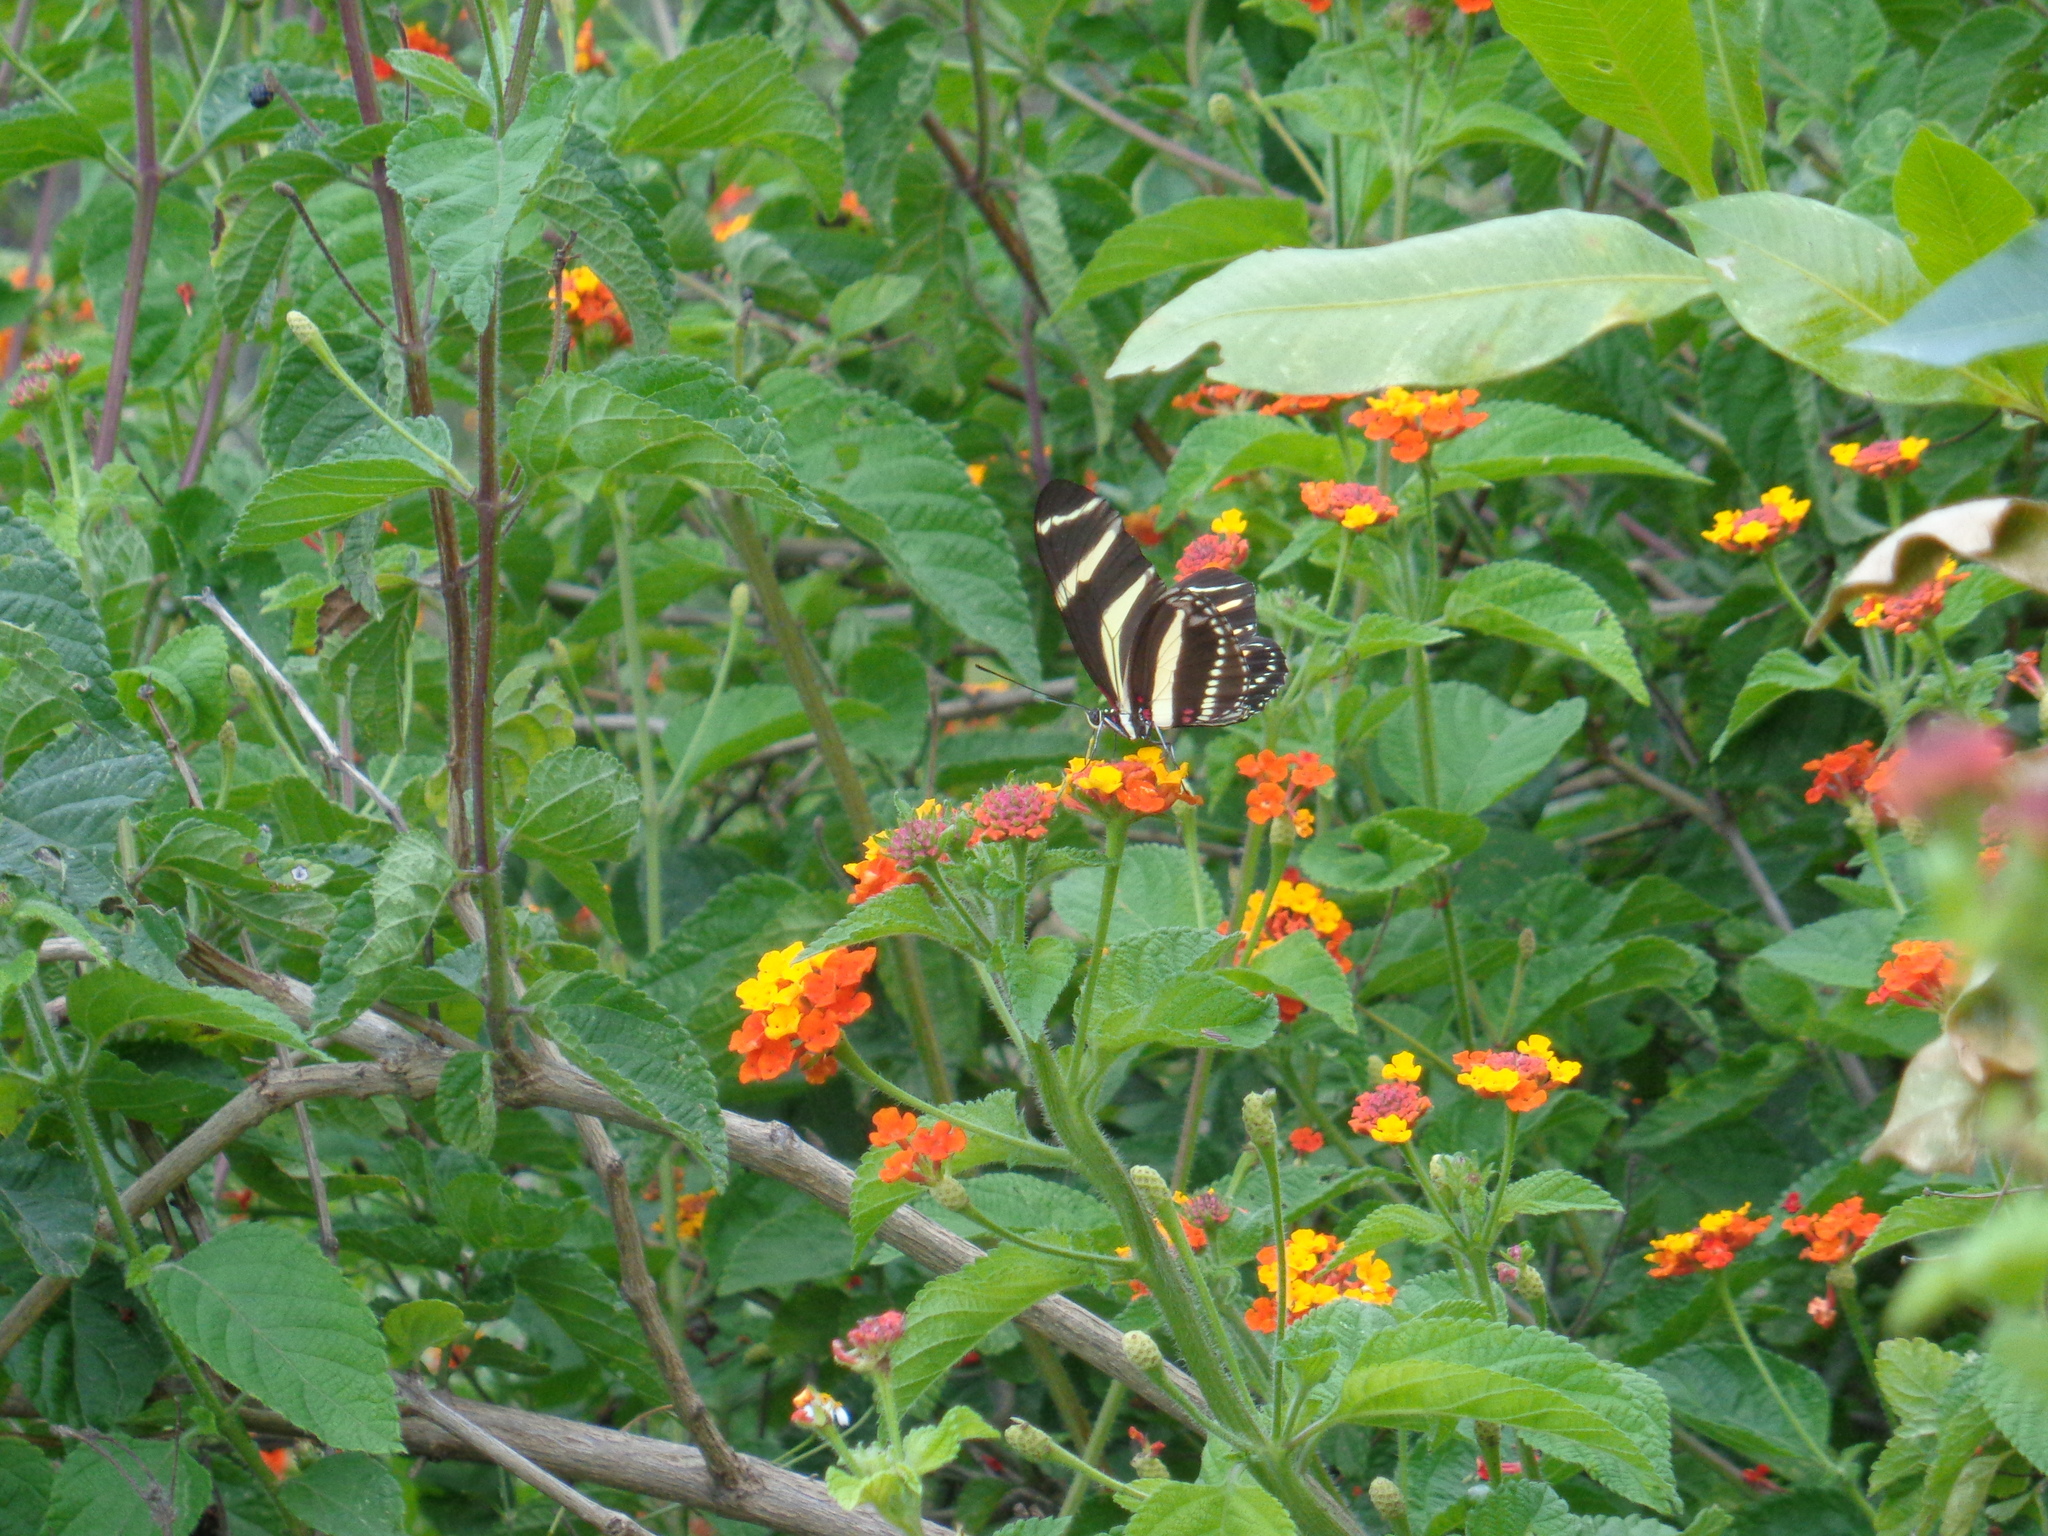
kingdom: Animalia
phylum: Arthropoda
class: Insecta
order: Lepidoptera
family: Nymphalidae
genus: Heliconius
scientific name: Heliconius charithonia
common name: Zebra long wing
